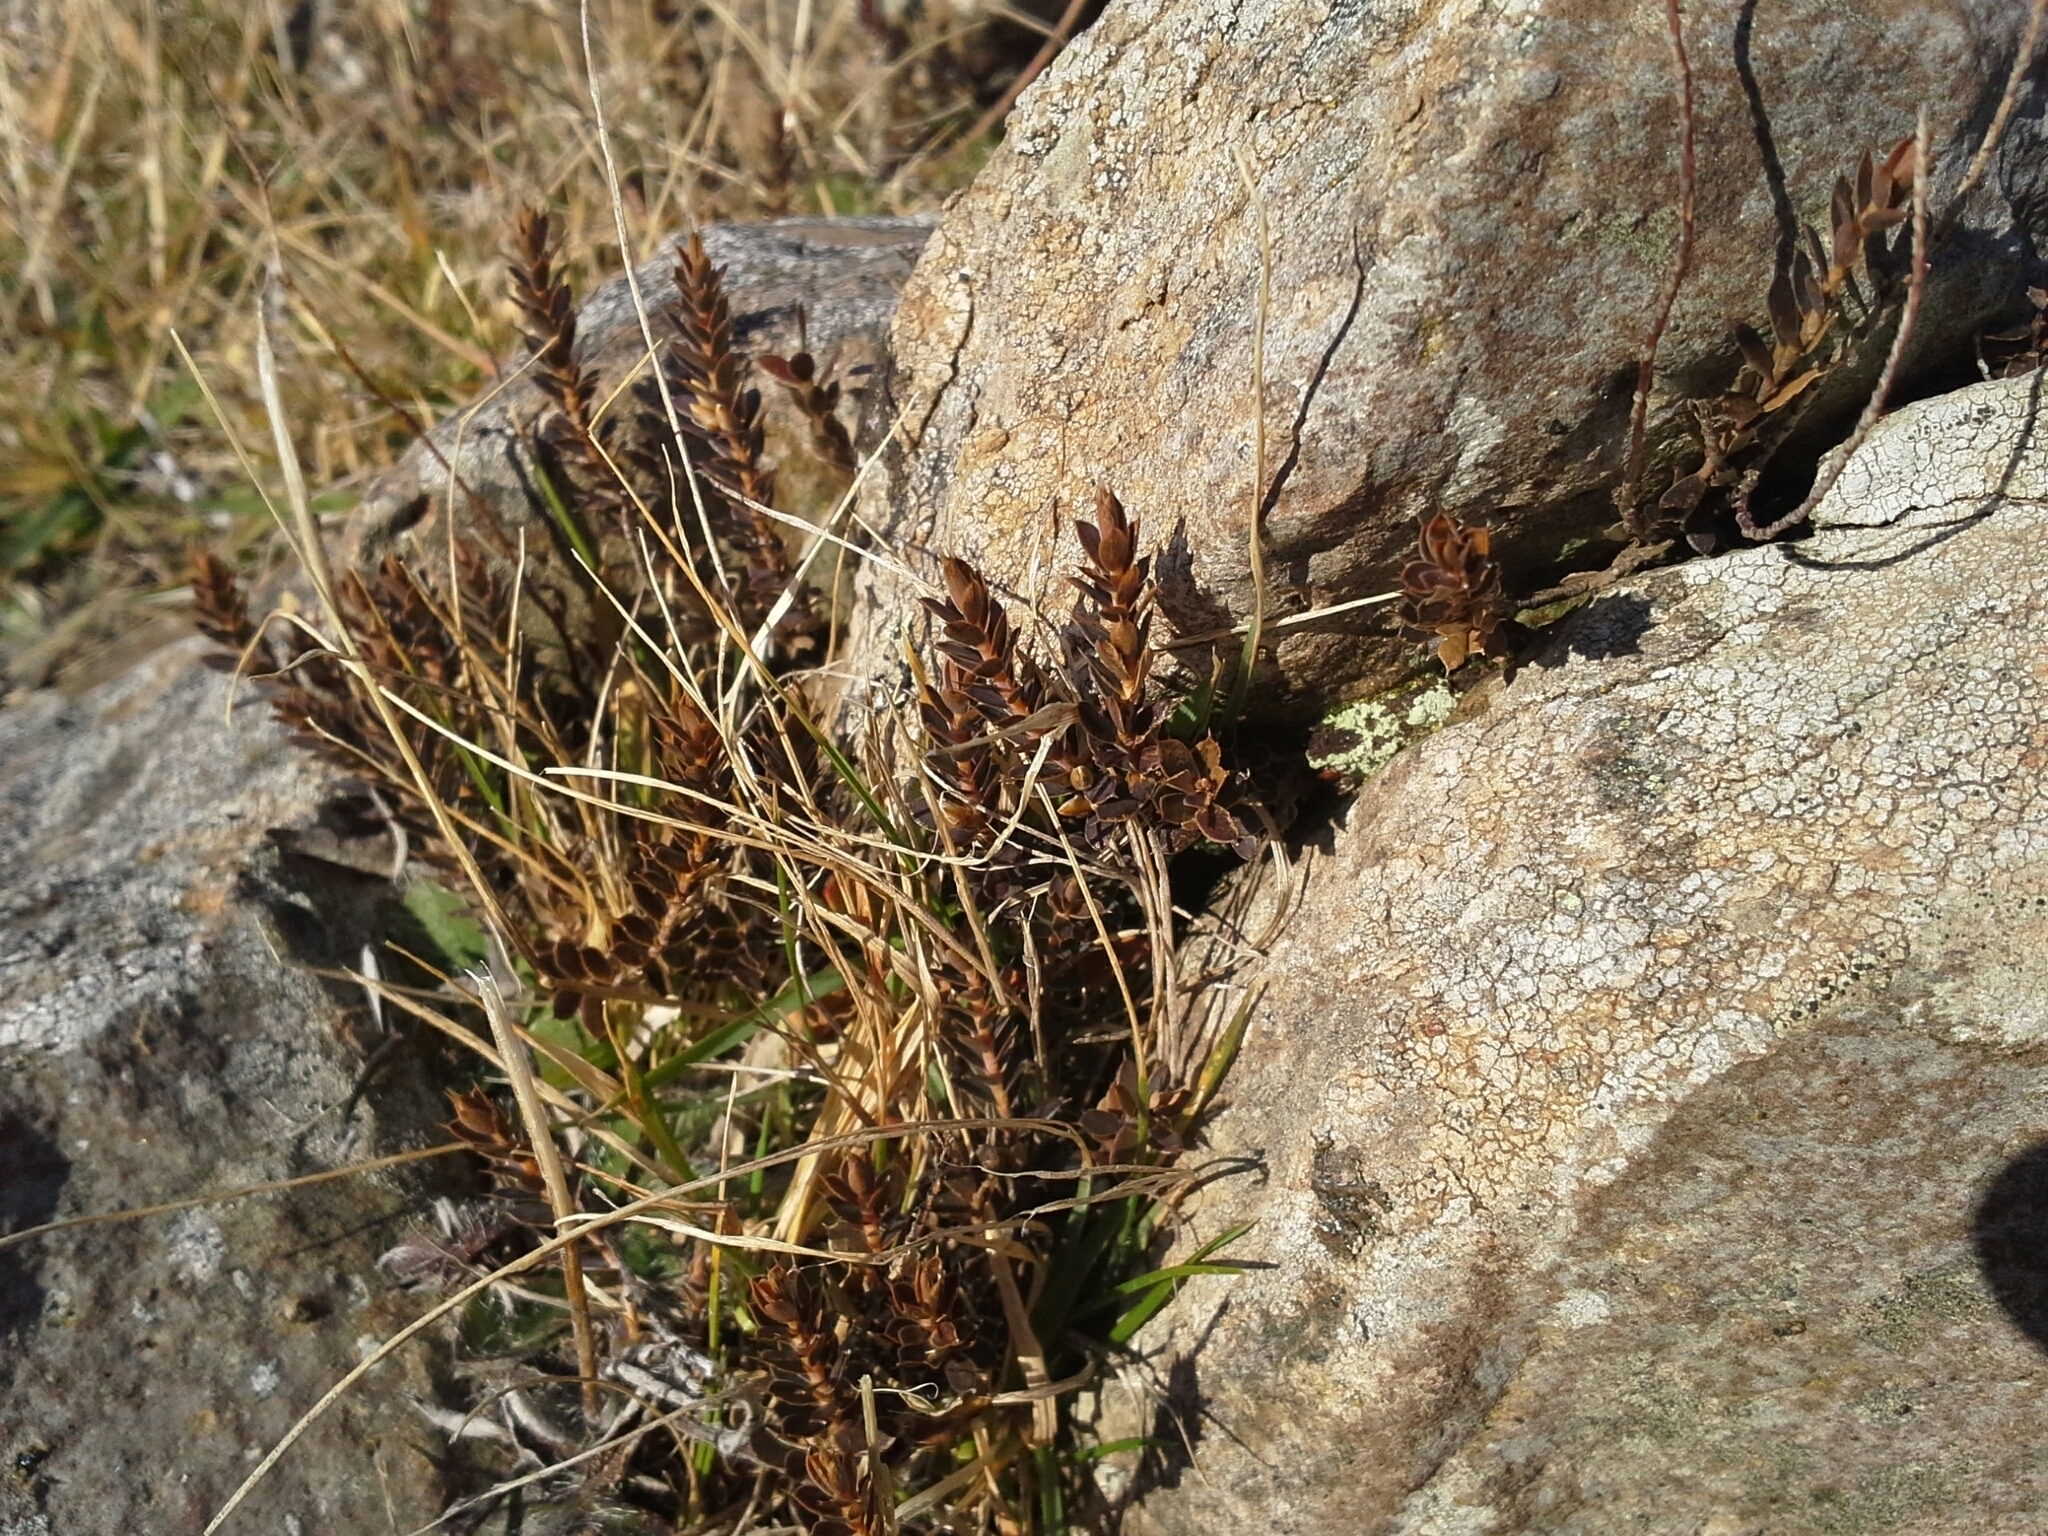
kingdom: Plantae
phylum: Tracheophyta
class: Magnoliopsida
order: Ericales
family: Ericaceae
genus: Styphelia
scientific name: Styphelia nesophila
